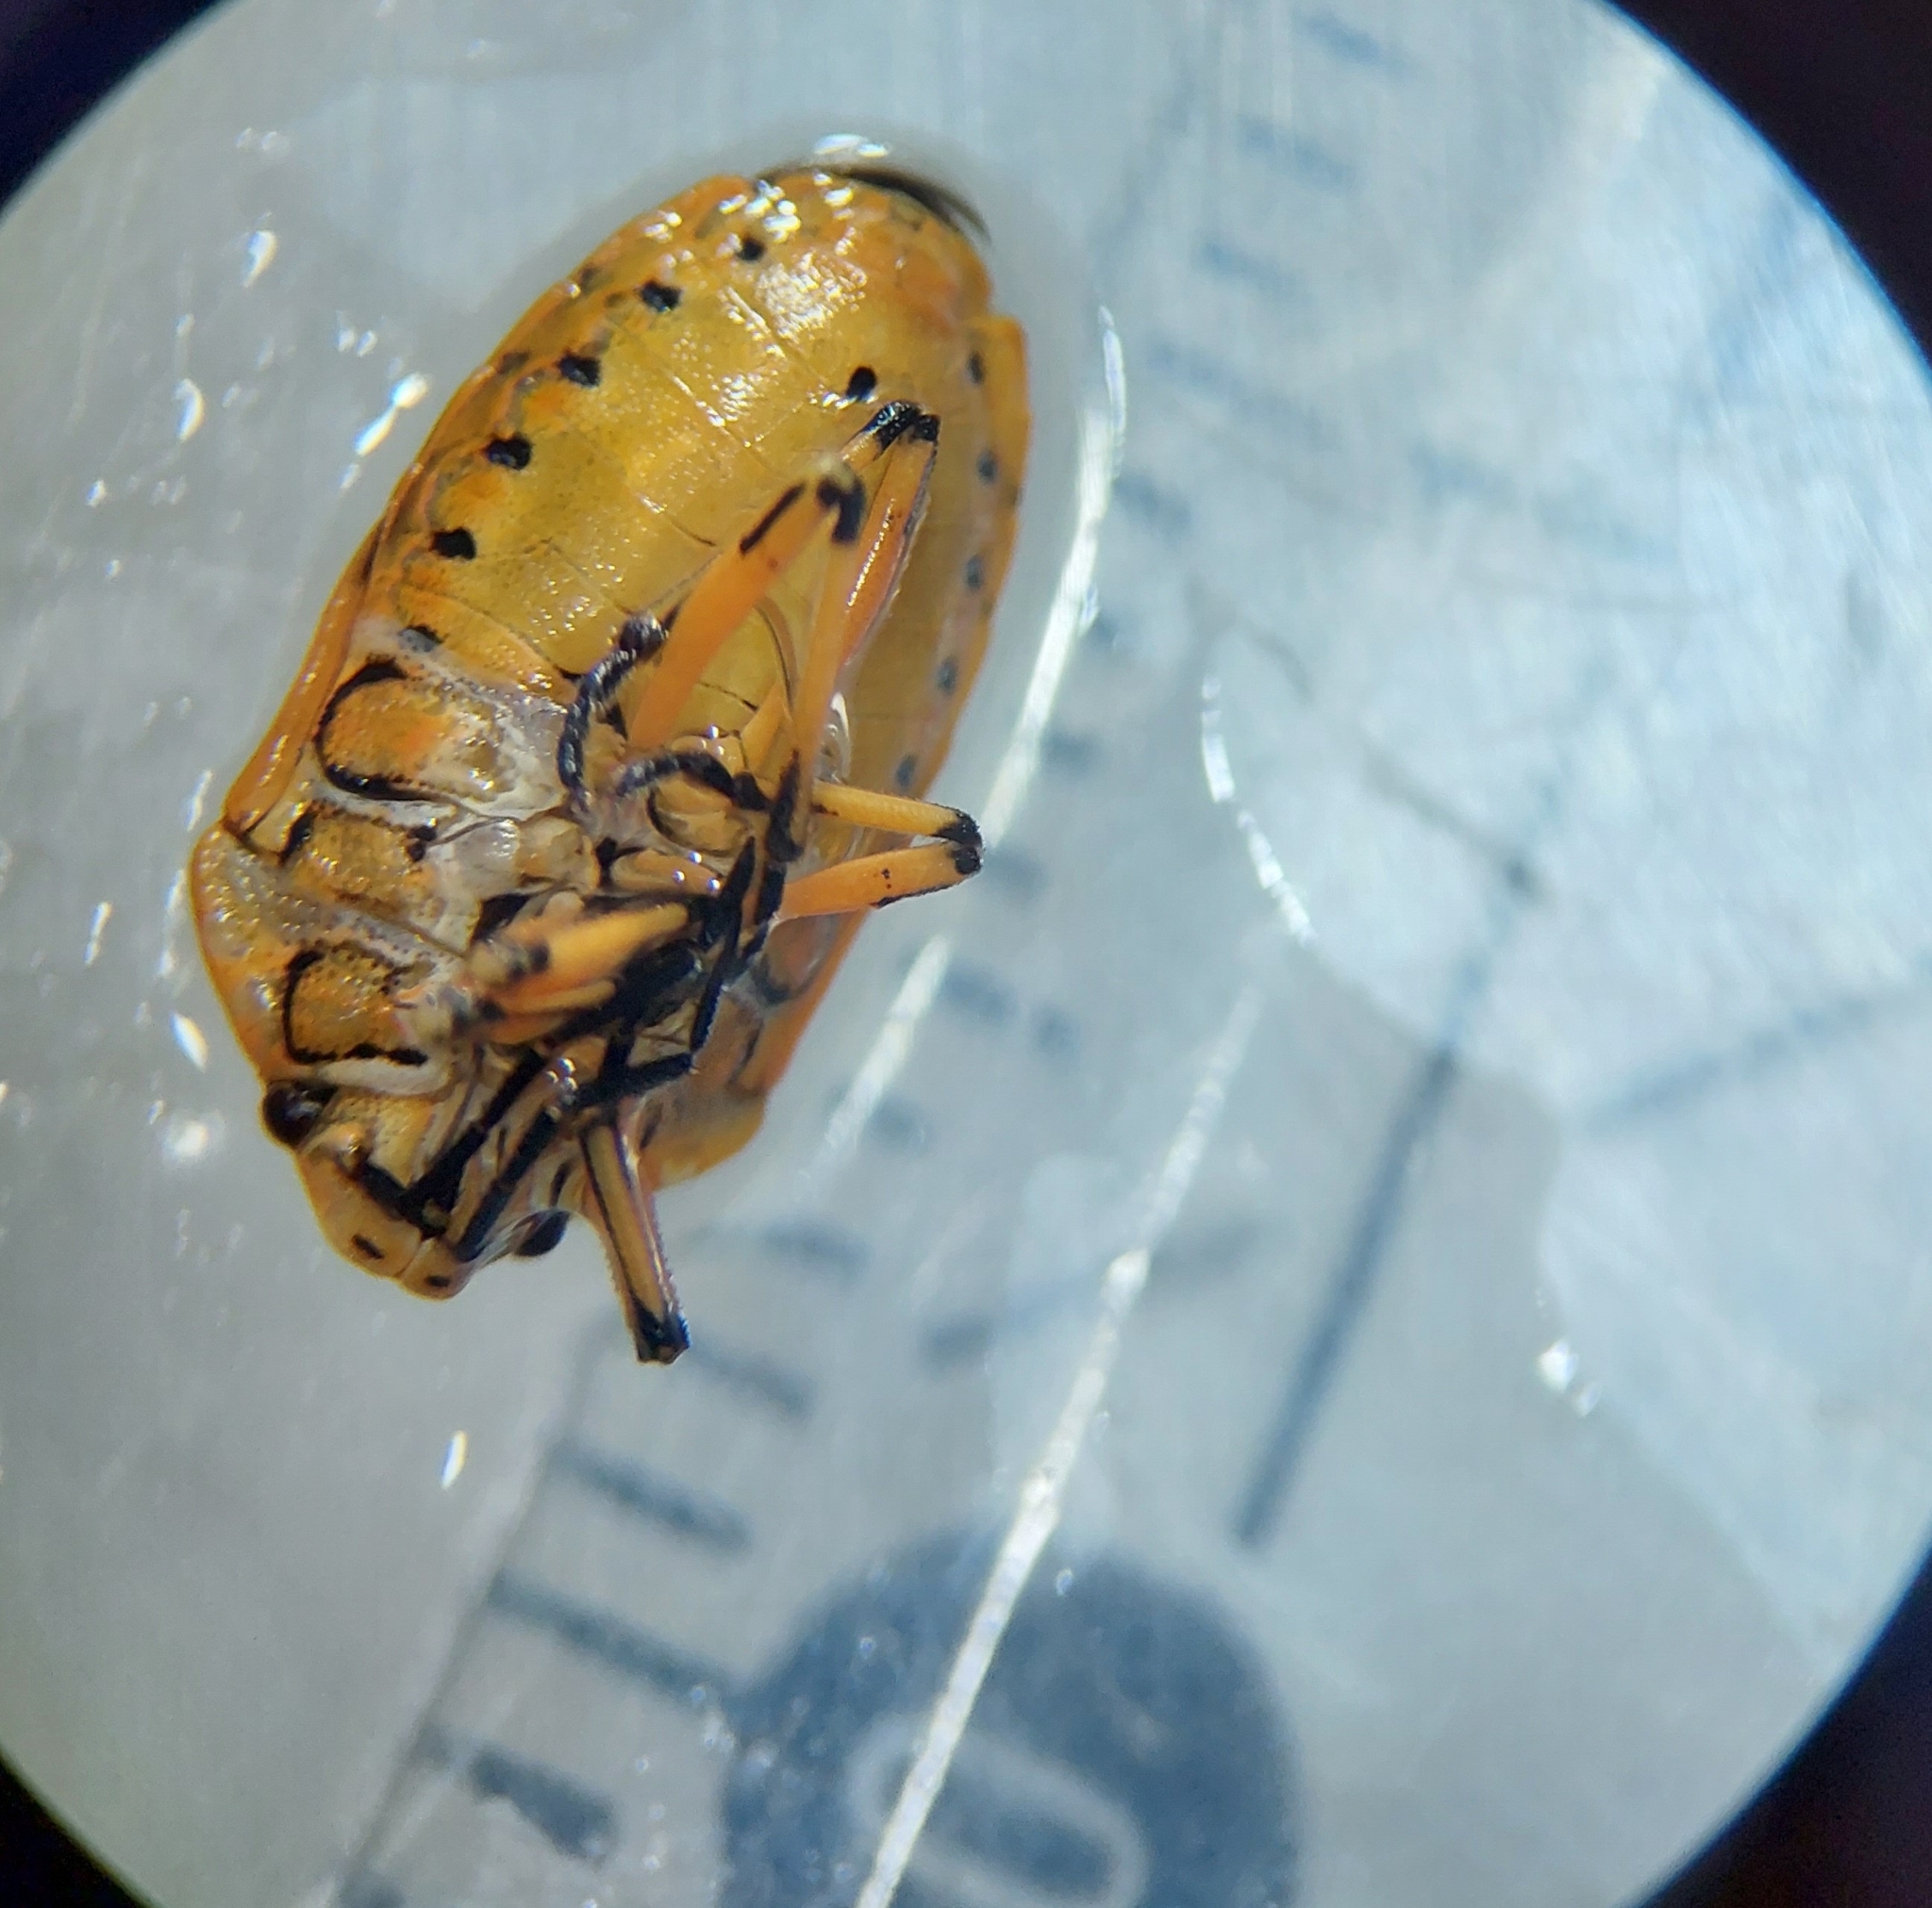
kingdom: Animalia
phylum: Arthropoda
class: Insecta
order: Hemiptera
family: Pentatomidae
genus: Eurydema
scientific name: Eurydema ornata
